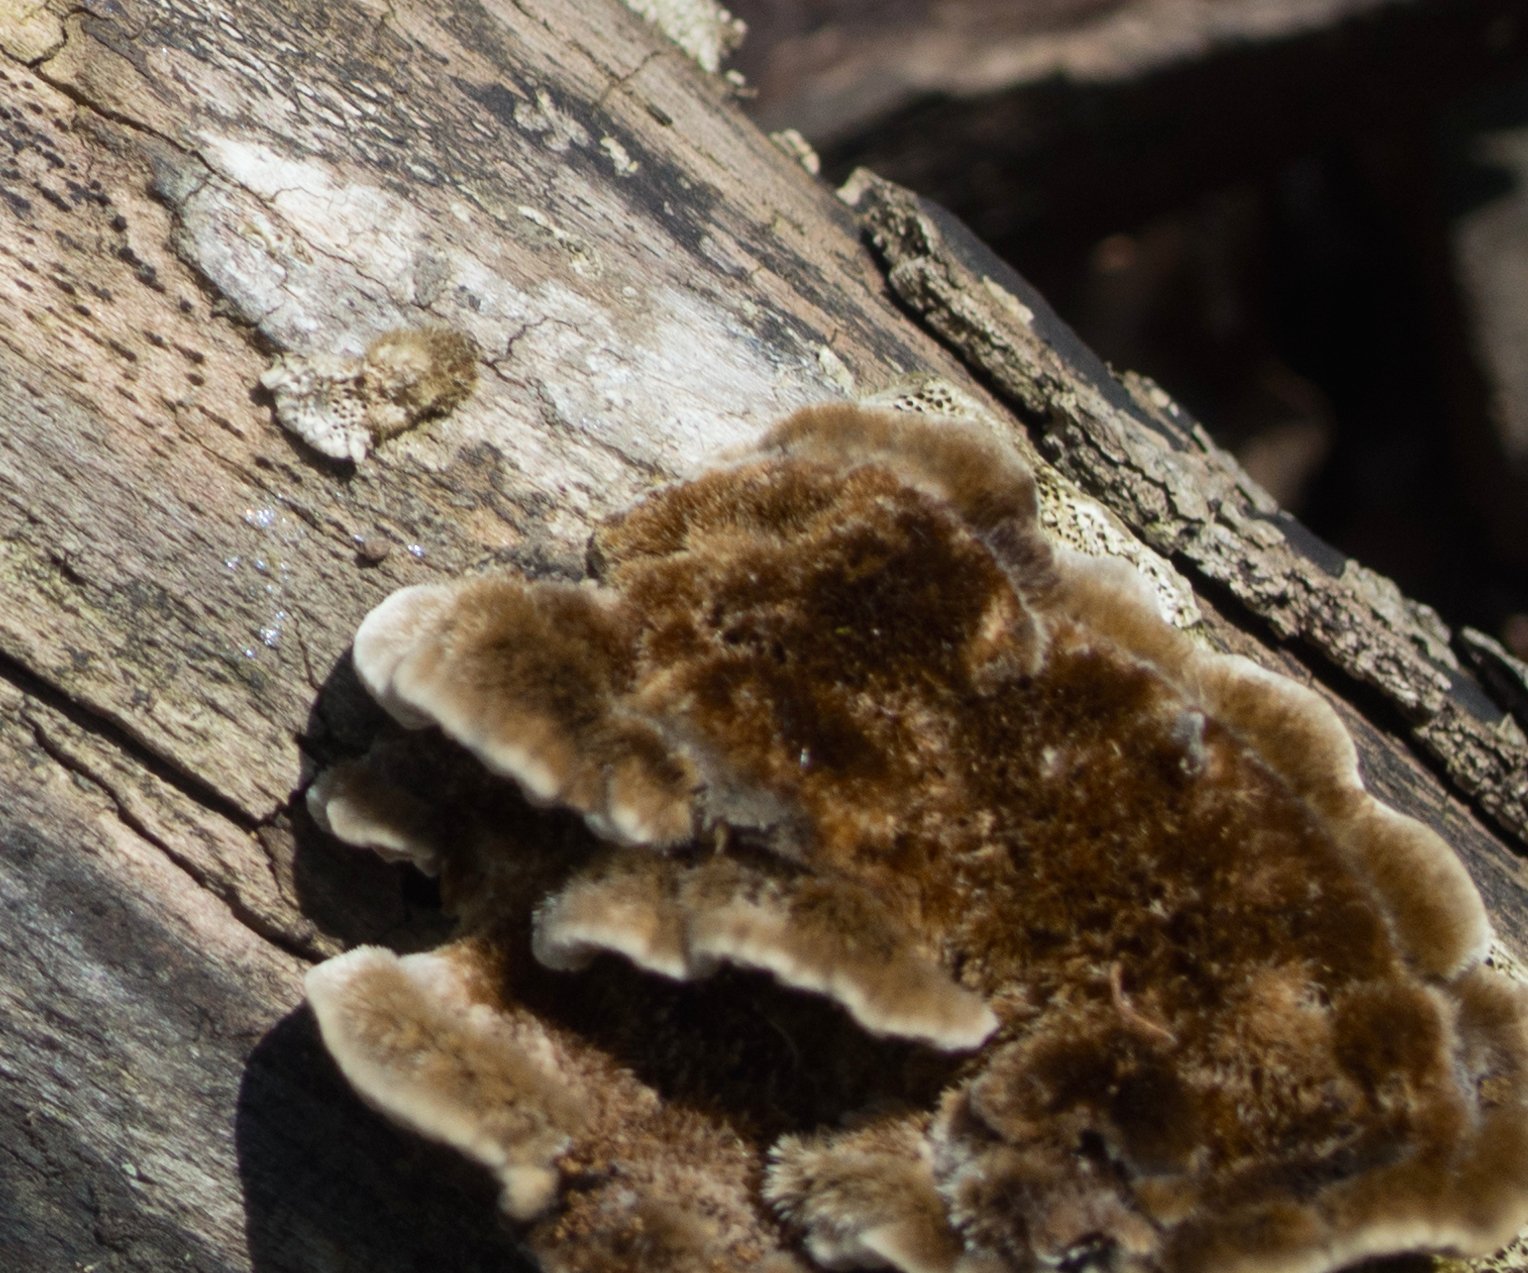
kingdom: Fungi
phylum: Basidiomycota
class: Agaricomycetes
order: Polyporales
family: Polyporaceae
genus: Coriolopsis
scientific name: Coriolopsis gallica
